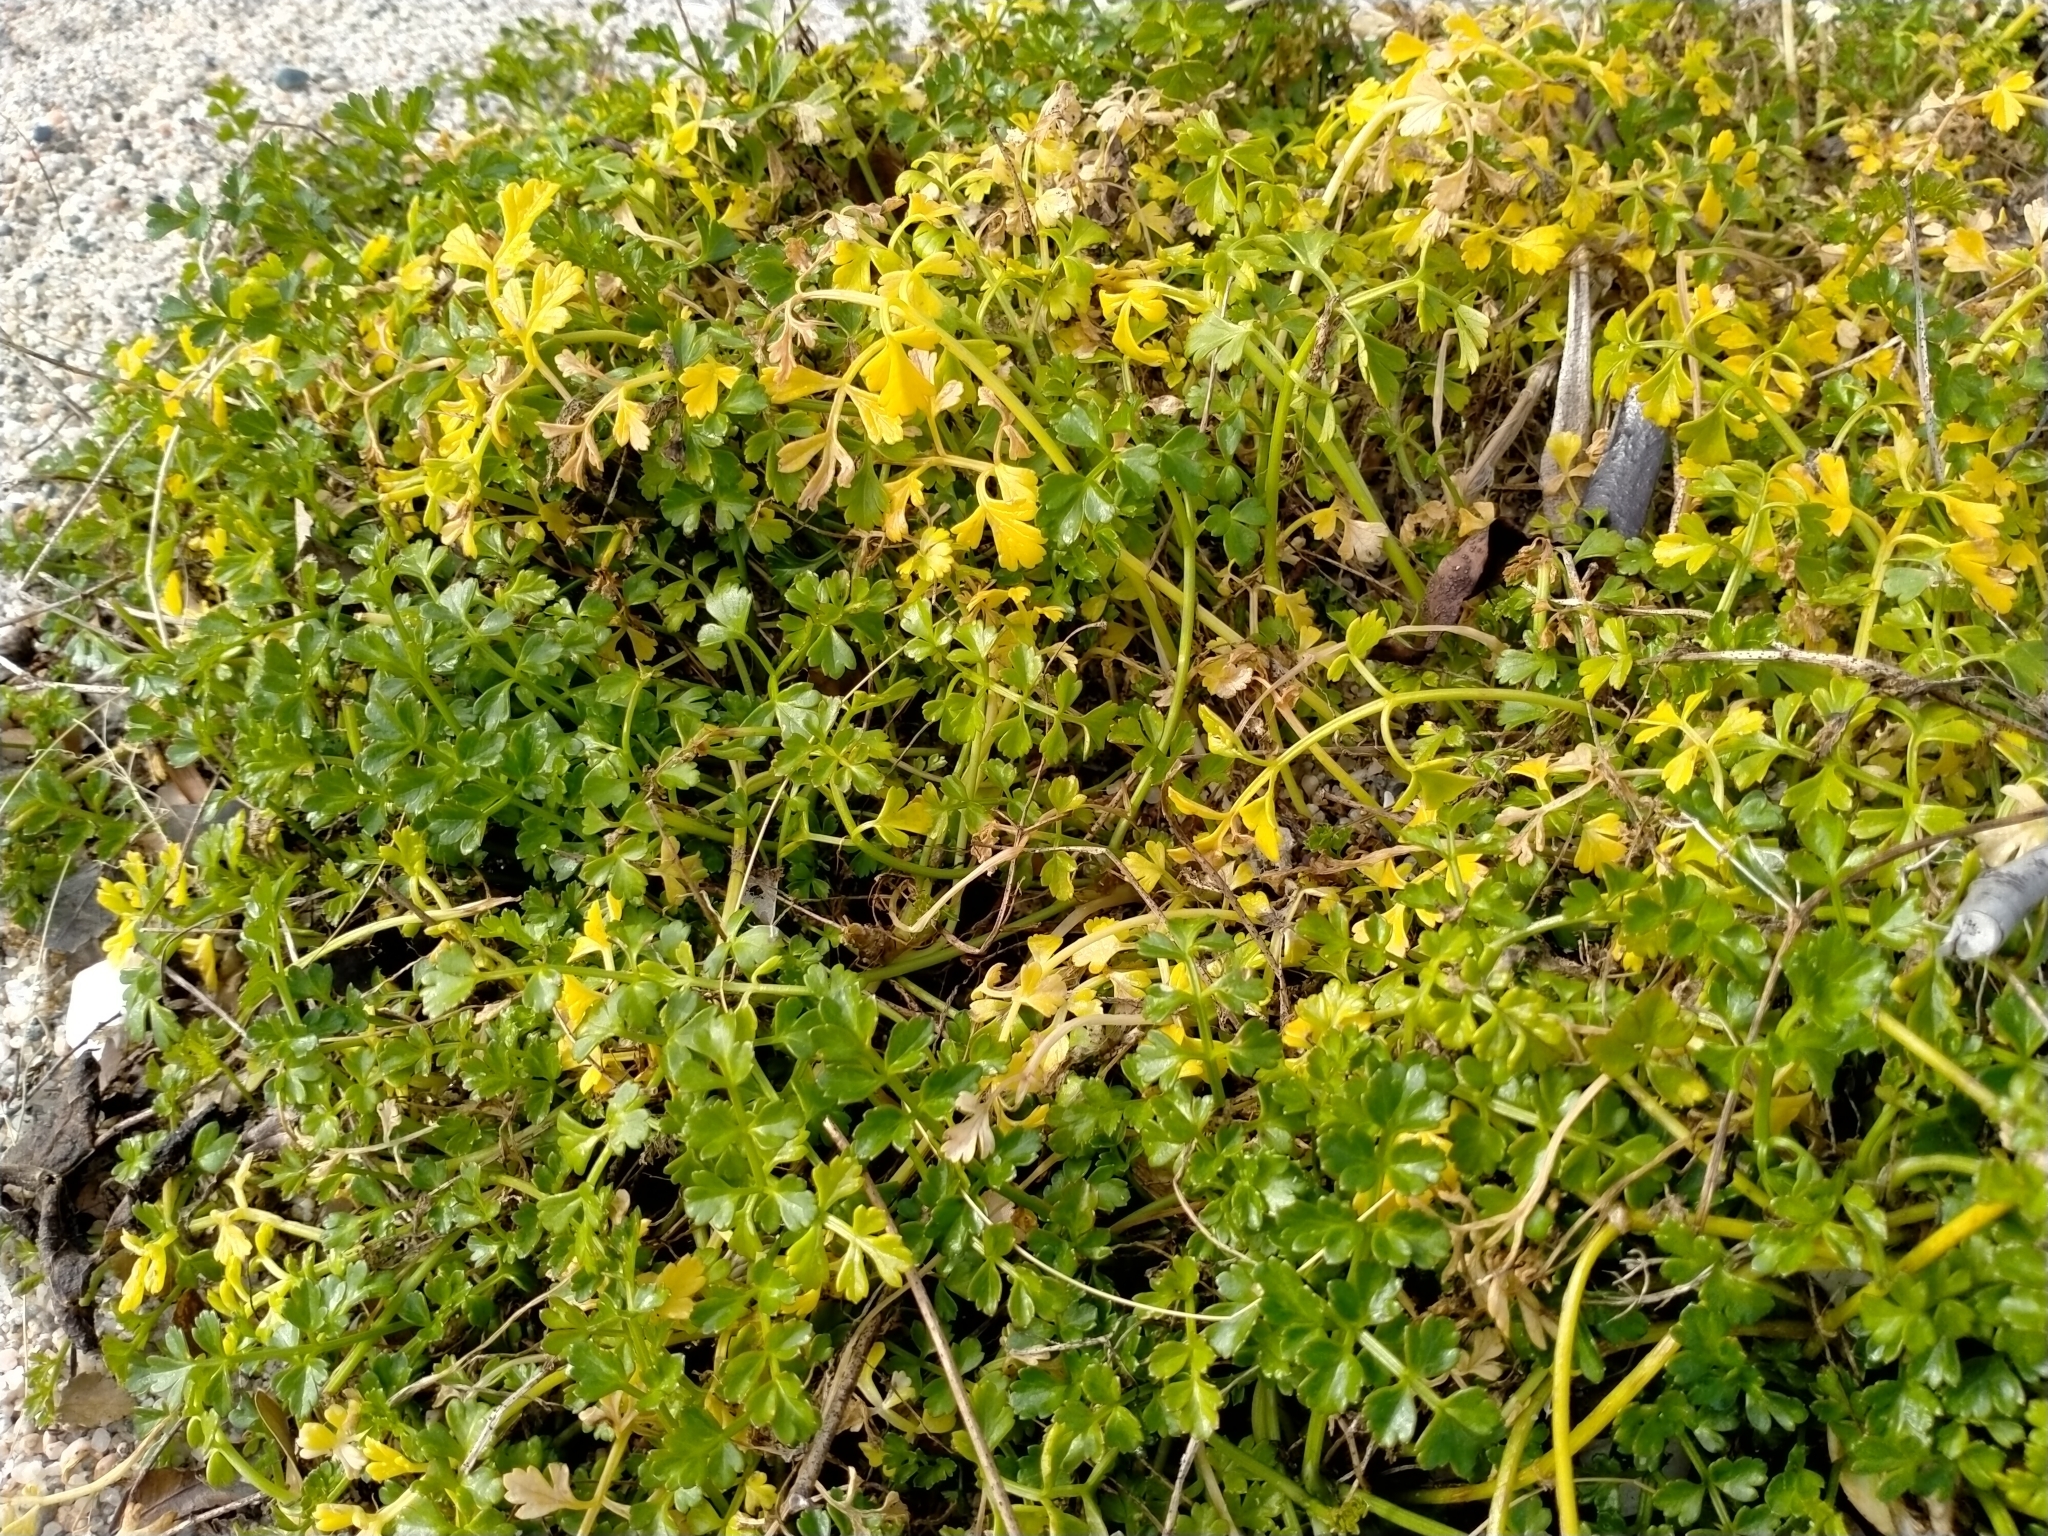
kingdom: Plantae
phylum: Tracheophyta
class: Magnoliopsida
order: Apiales
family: Apiaceae
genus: Apium
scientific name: Apium prostratum
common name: Prostrate marshwort
